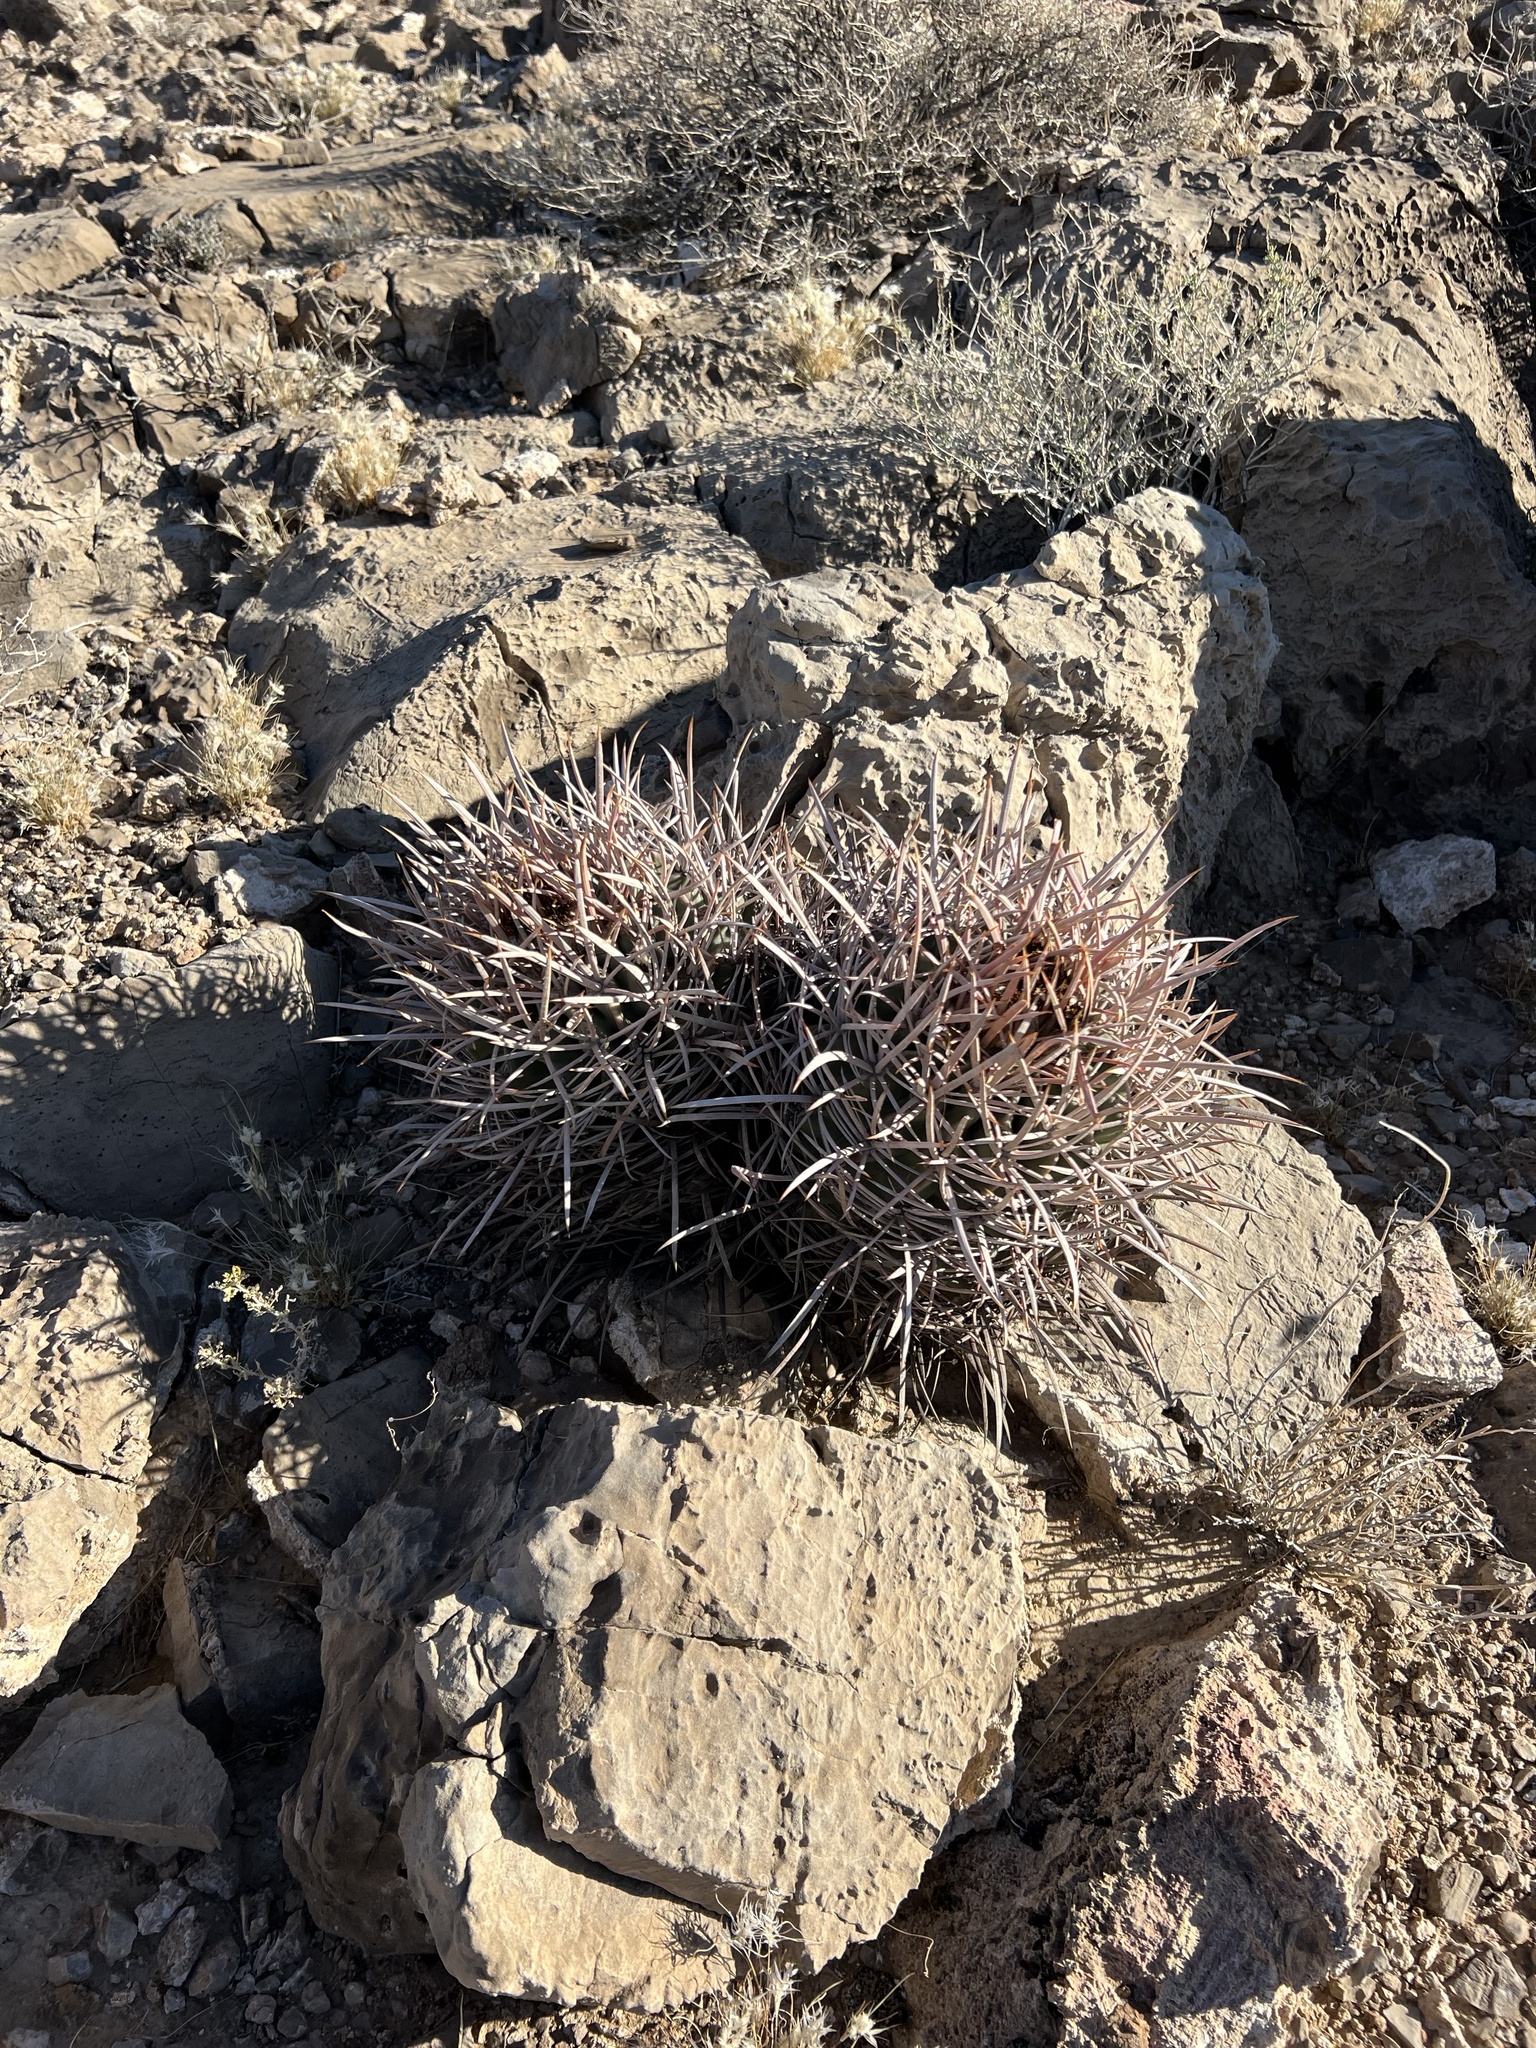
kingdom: Plantae
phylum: Tracheophyta
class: Magnoliopsida
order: Caryophyllales
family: Cactaceae
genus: Echinocactus
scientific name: Echinocactus polycephalus
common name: Cottontop cactus
